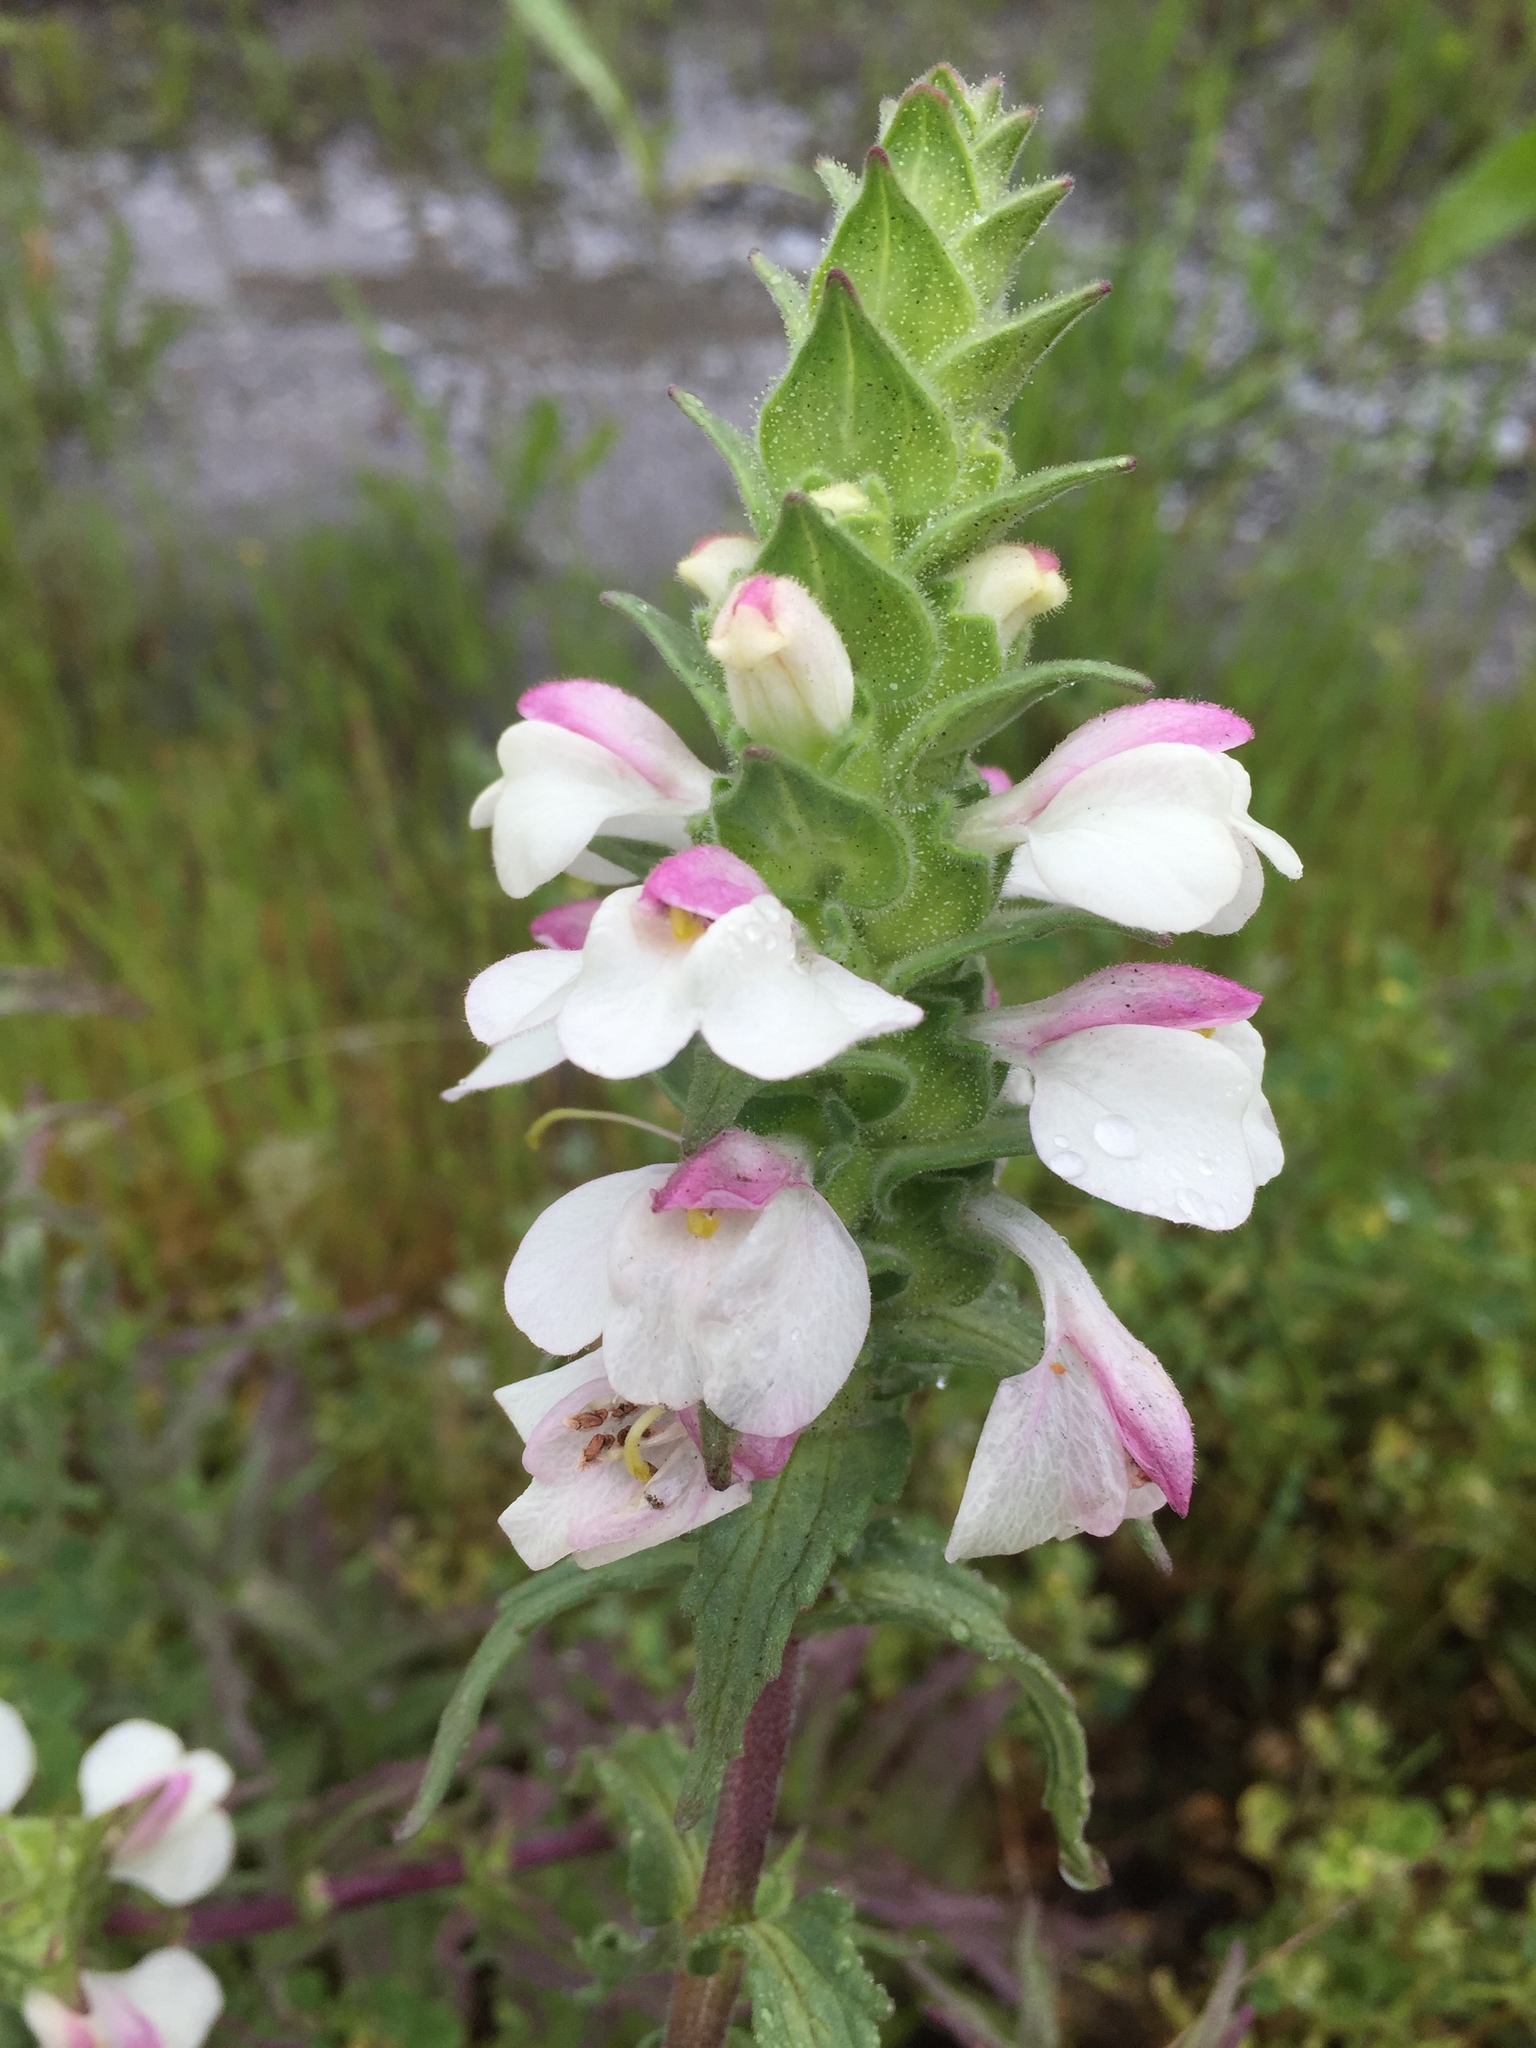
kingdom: Plantae
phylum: Tracheophyta
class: Magnoliopsida
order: Lamiales
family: Orobanchaceae
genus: Bellardia
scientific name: Bellardia trixago
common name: Mediterranean lineseed
